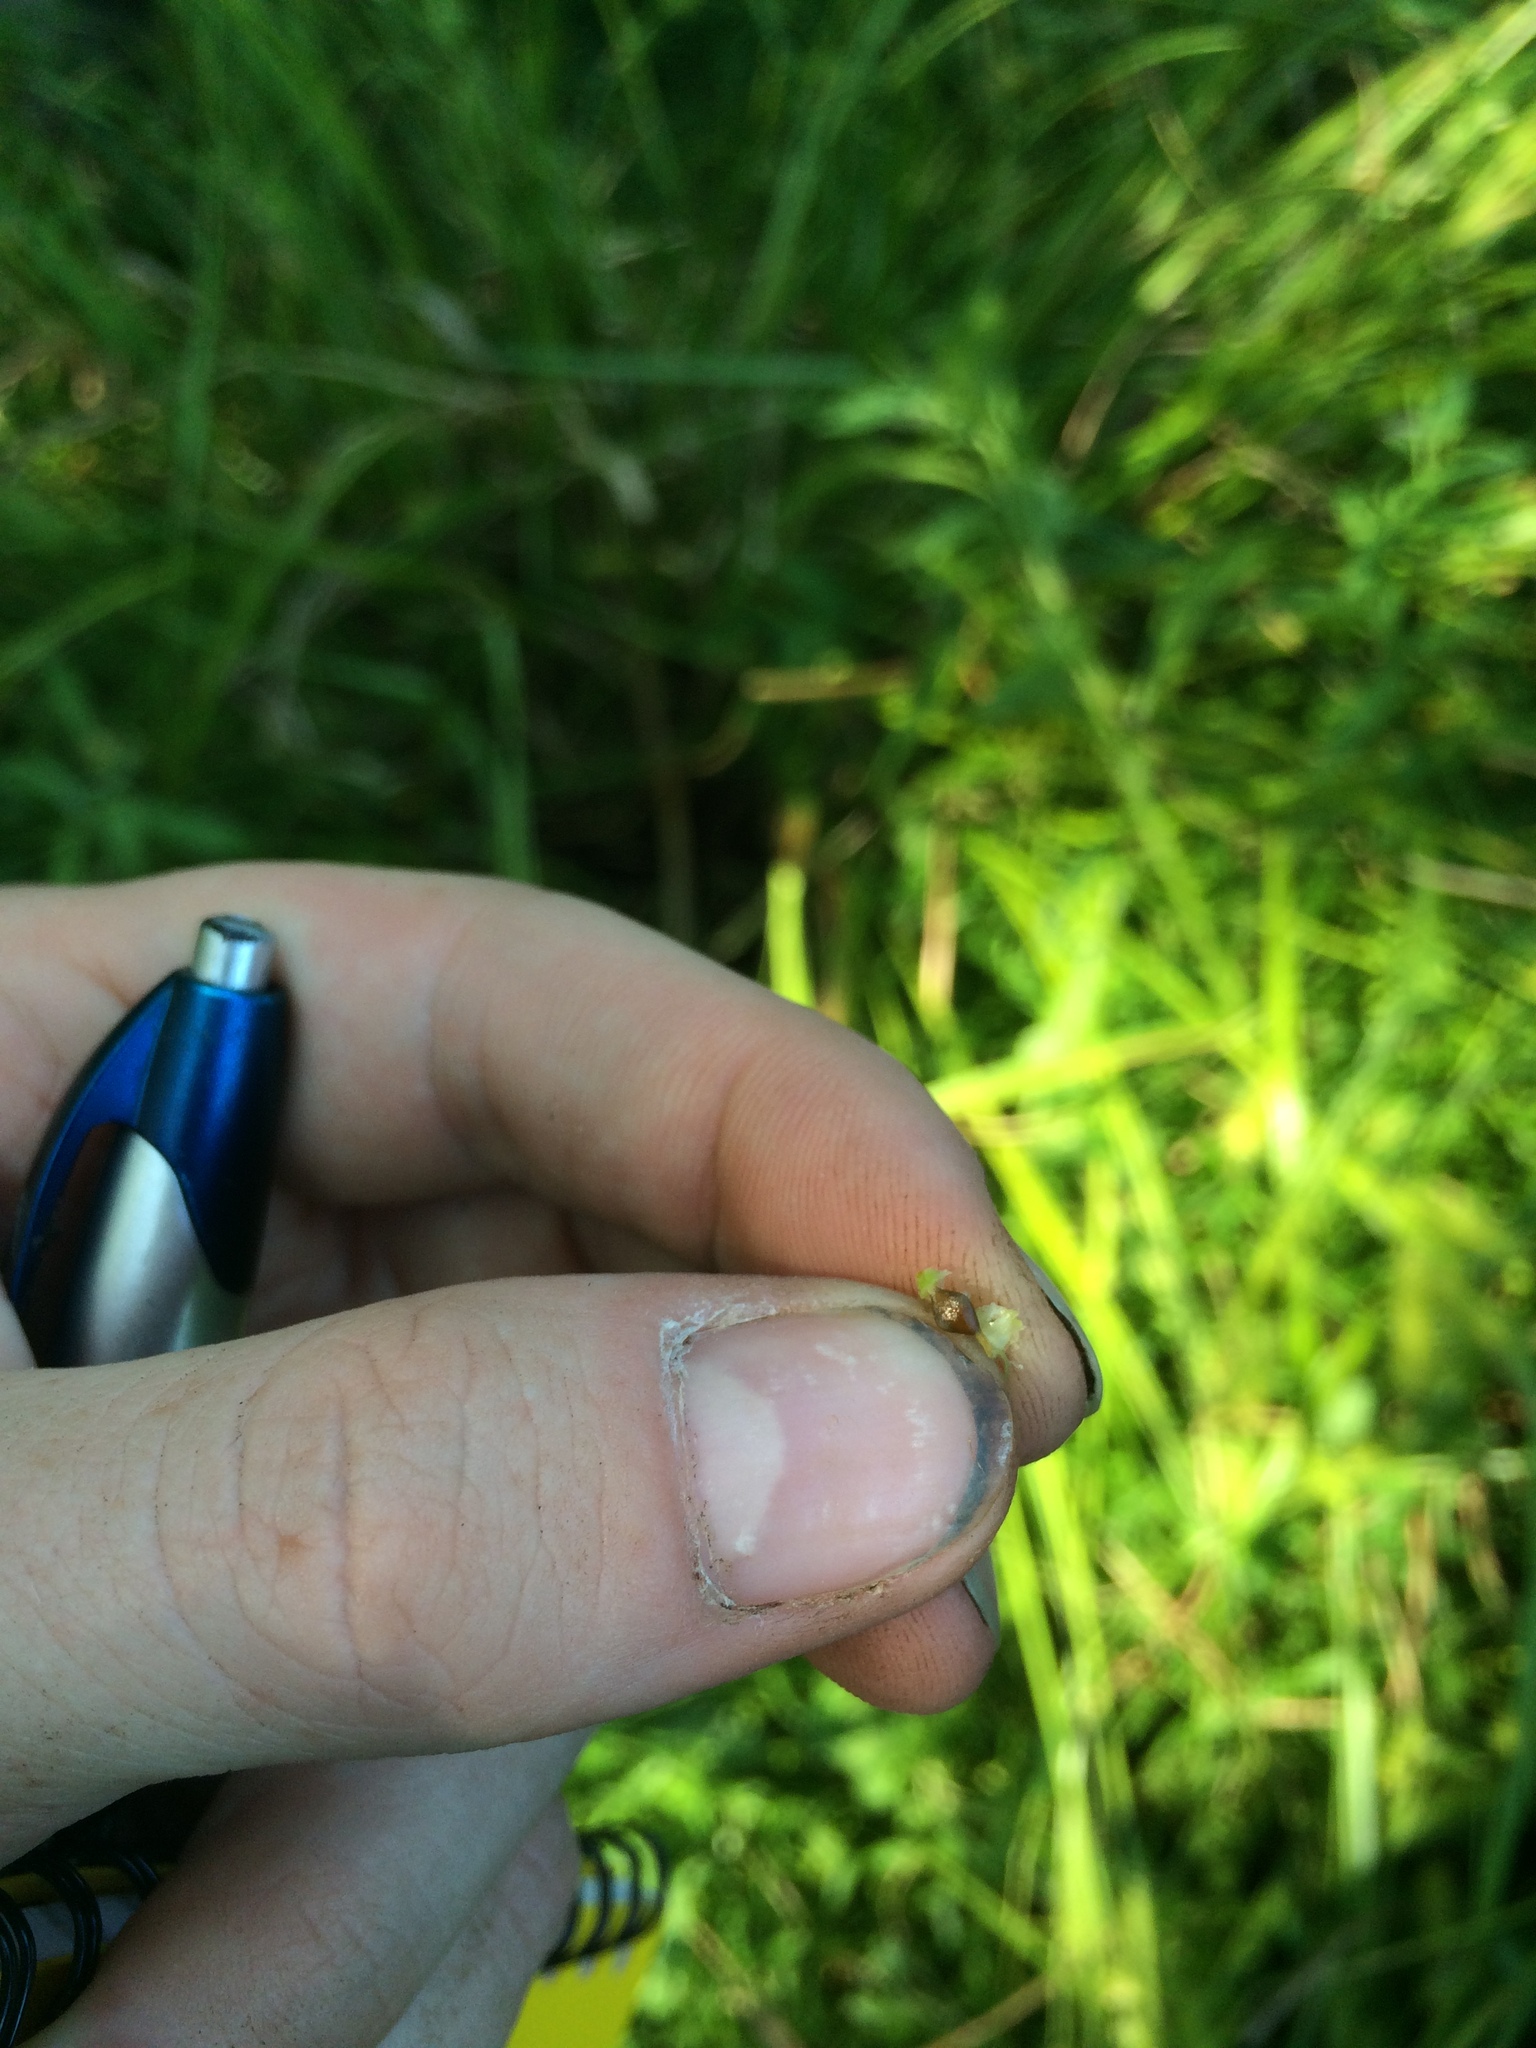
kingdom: Plantae
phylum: Tracheophyta
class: Liliopsida
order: Poales
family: Cyperaceae
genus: Carex
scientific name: Carex louisianica
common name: Louisiana sedge
